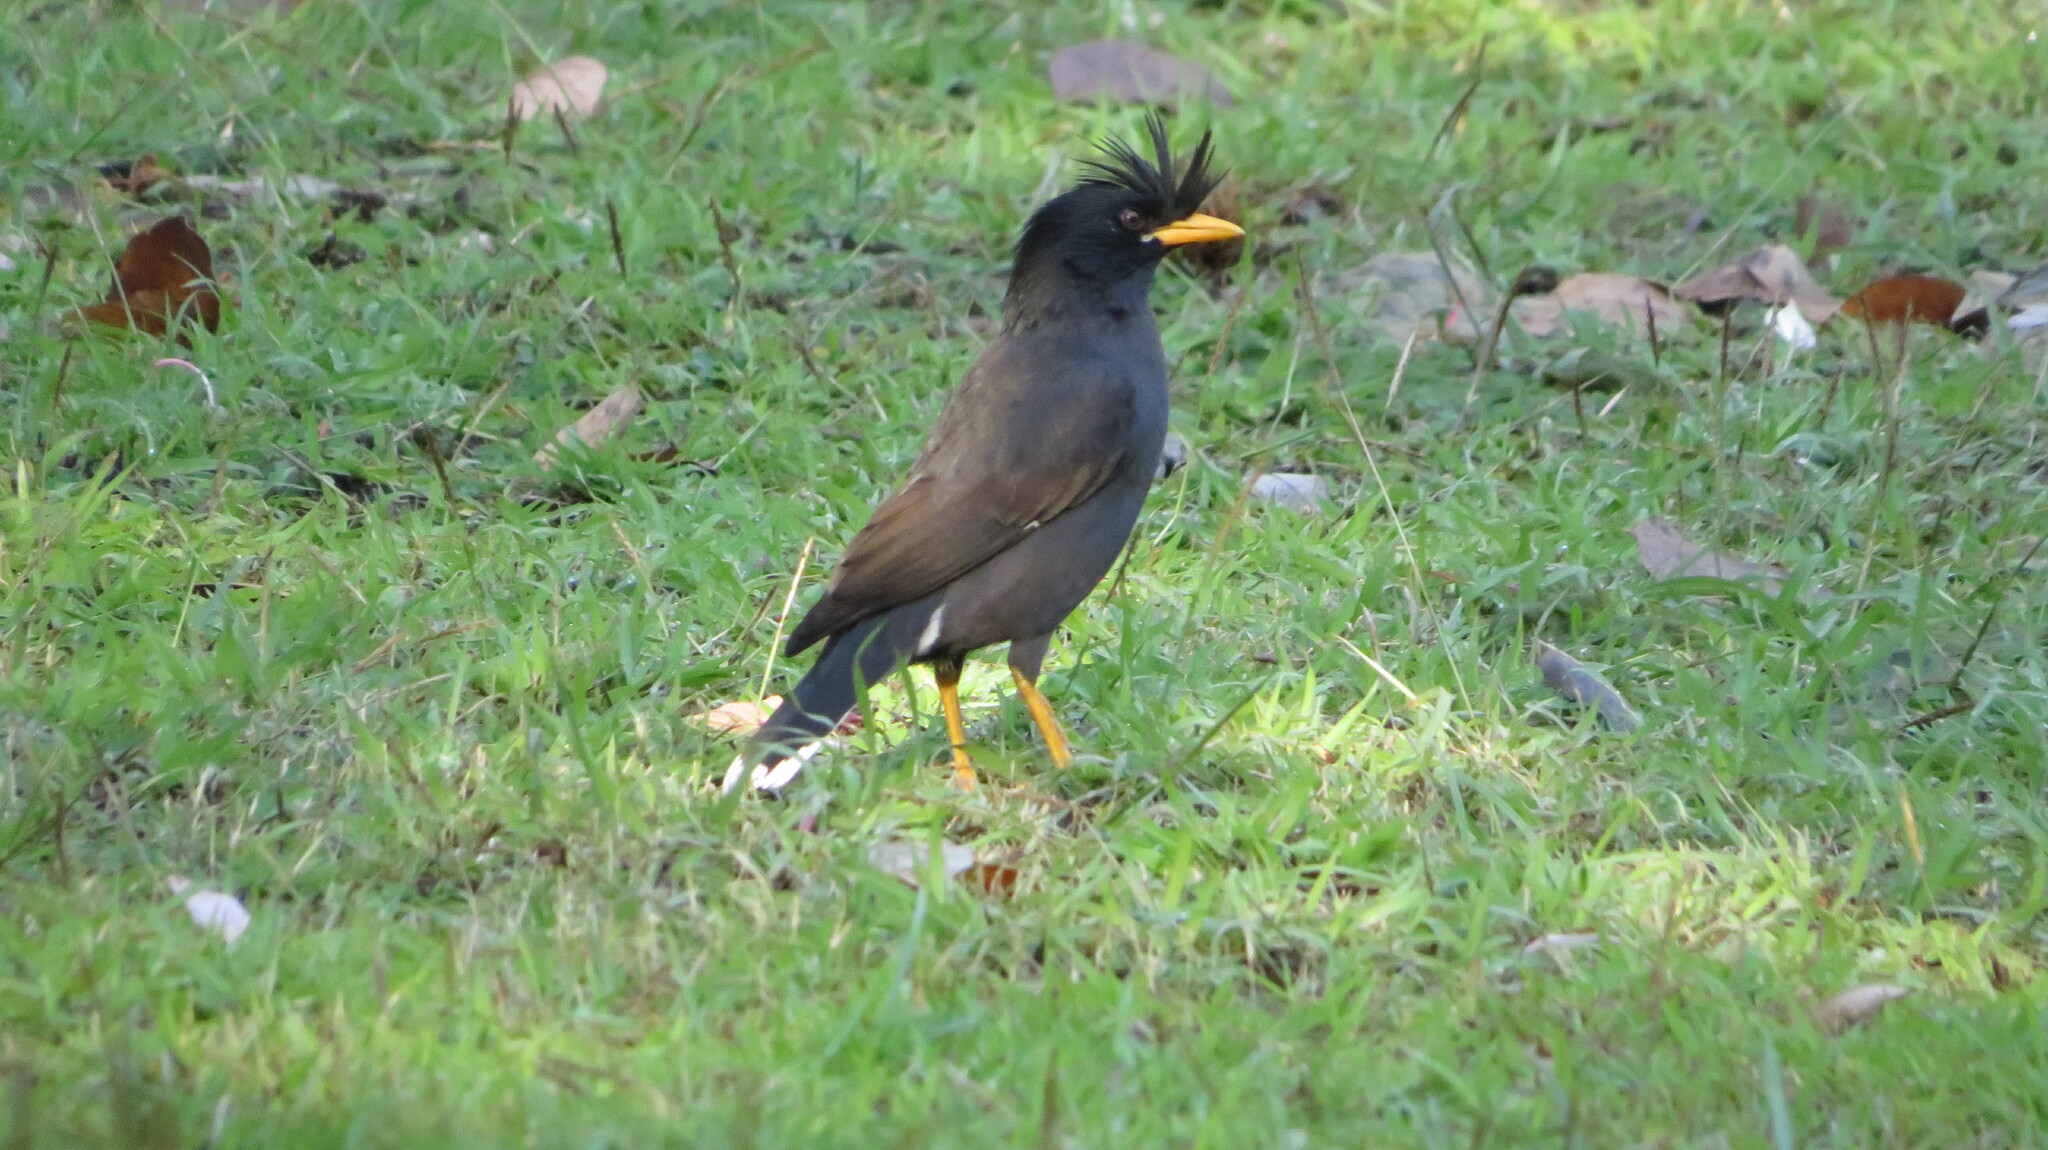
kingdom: Animalia
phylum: Chordata
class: Aves
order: Passeriformes
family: Sturnidae
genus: Acridotheres
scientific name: Acridotheres grandis
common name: Great myna
